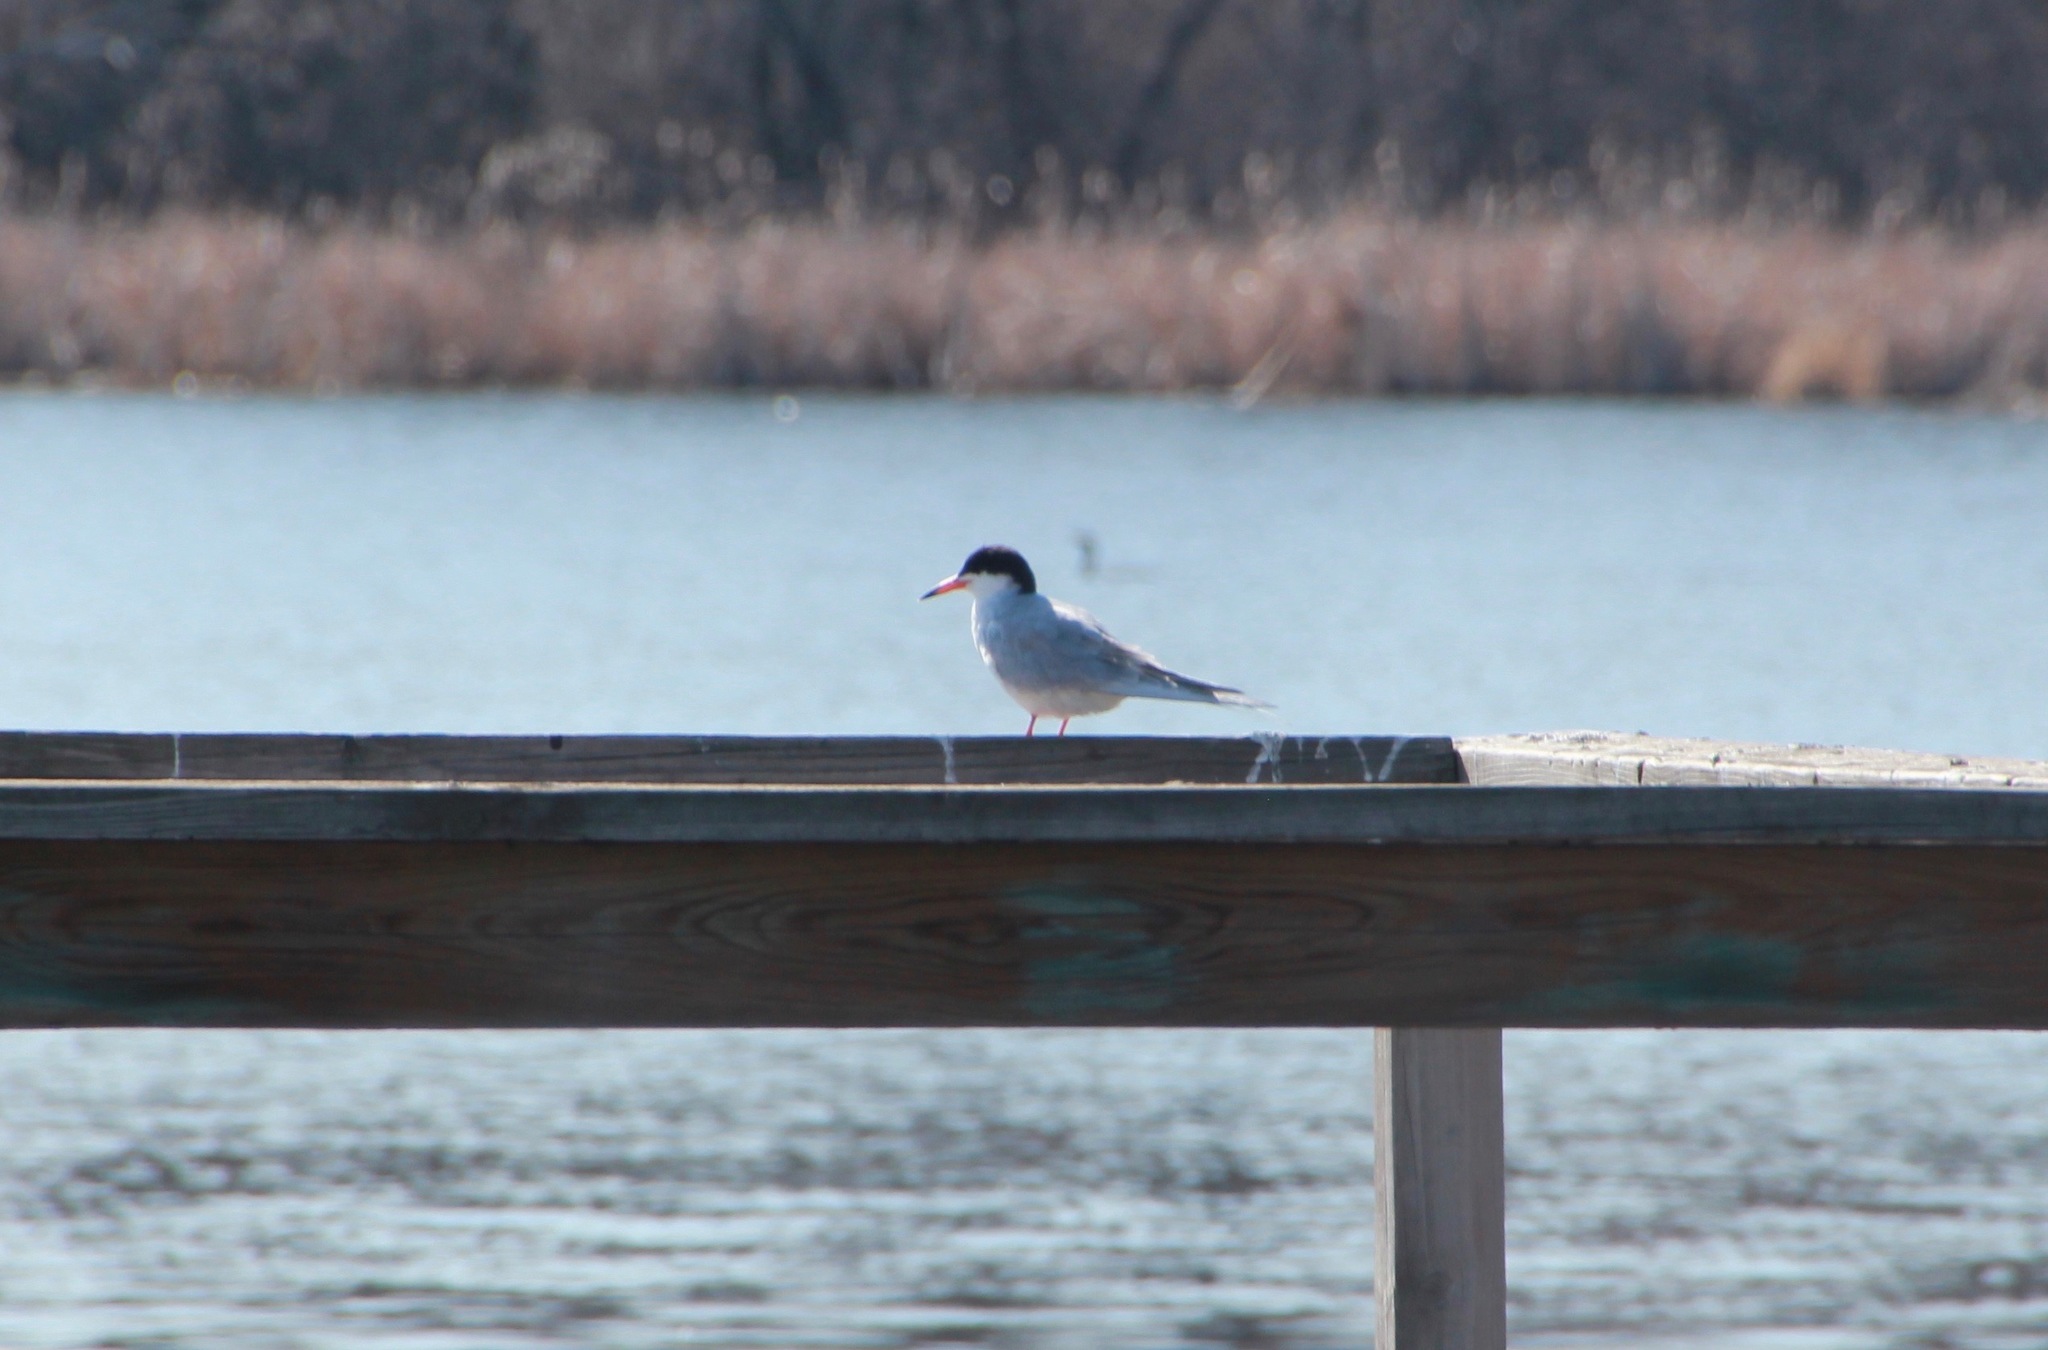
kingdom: Animalia
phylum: Chordata
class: Aves
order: Charadriiformes
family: Laridae
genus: Sterna
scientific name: Sterna forsteri
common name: Forster's tern
